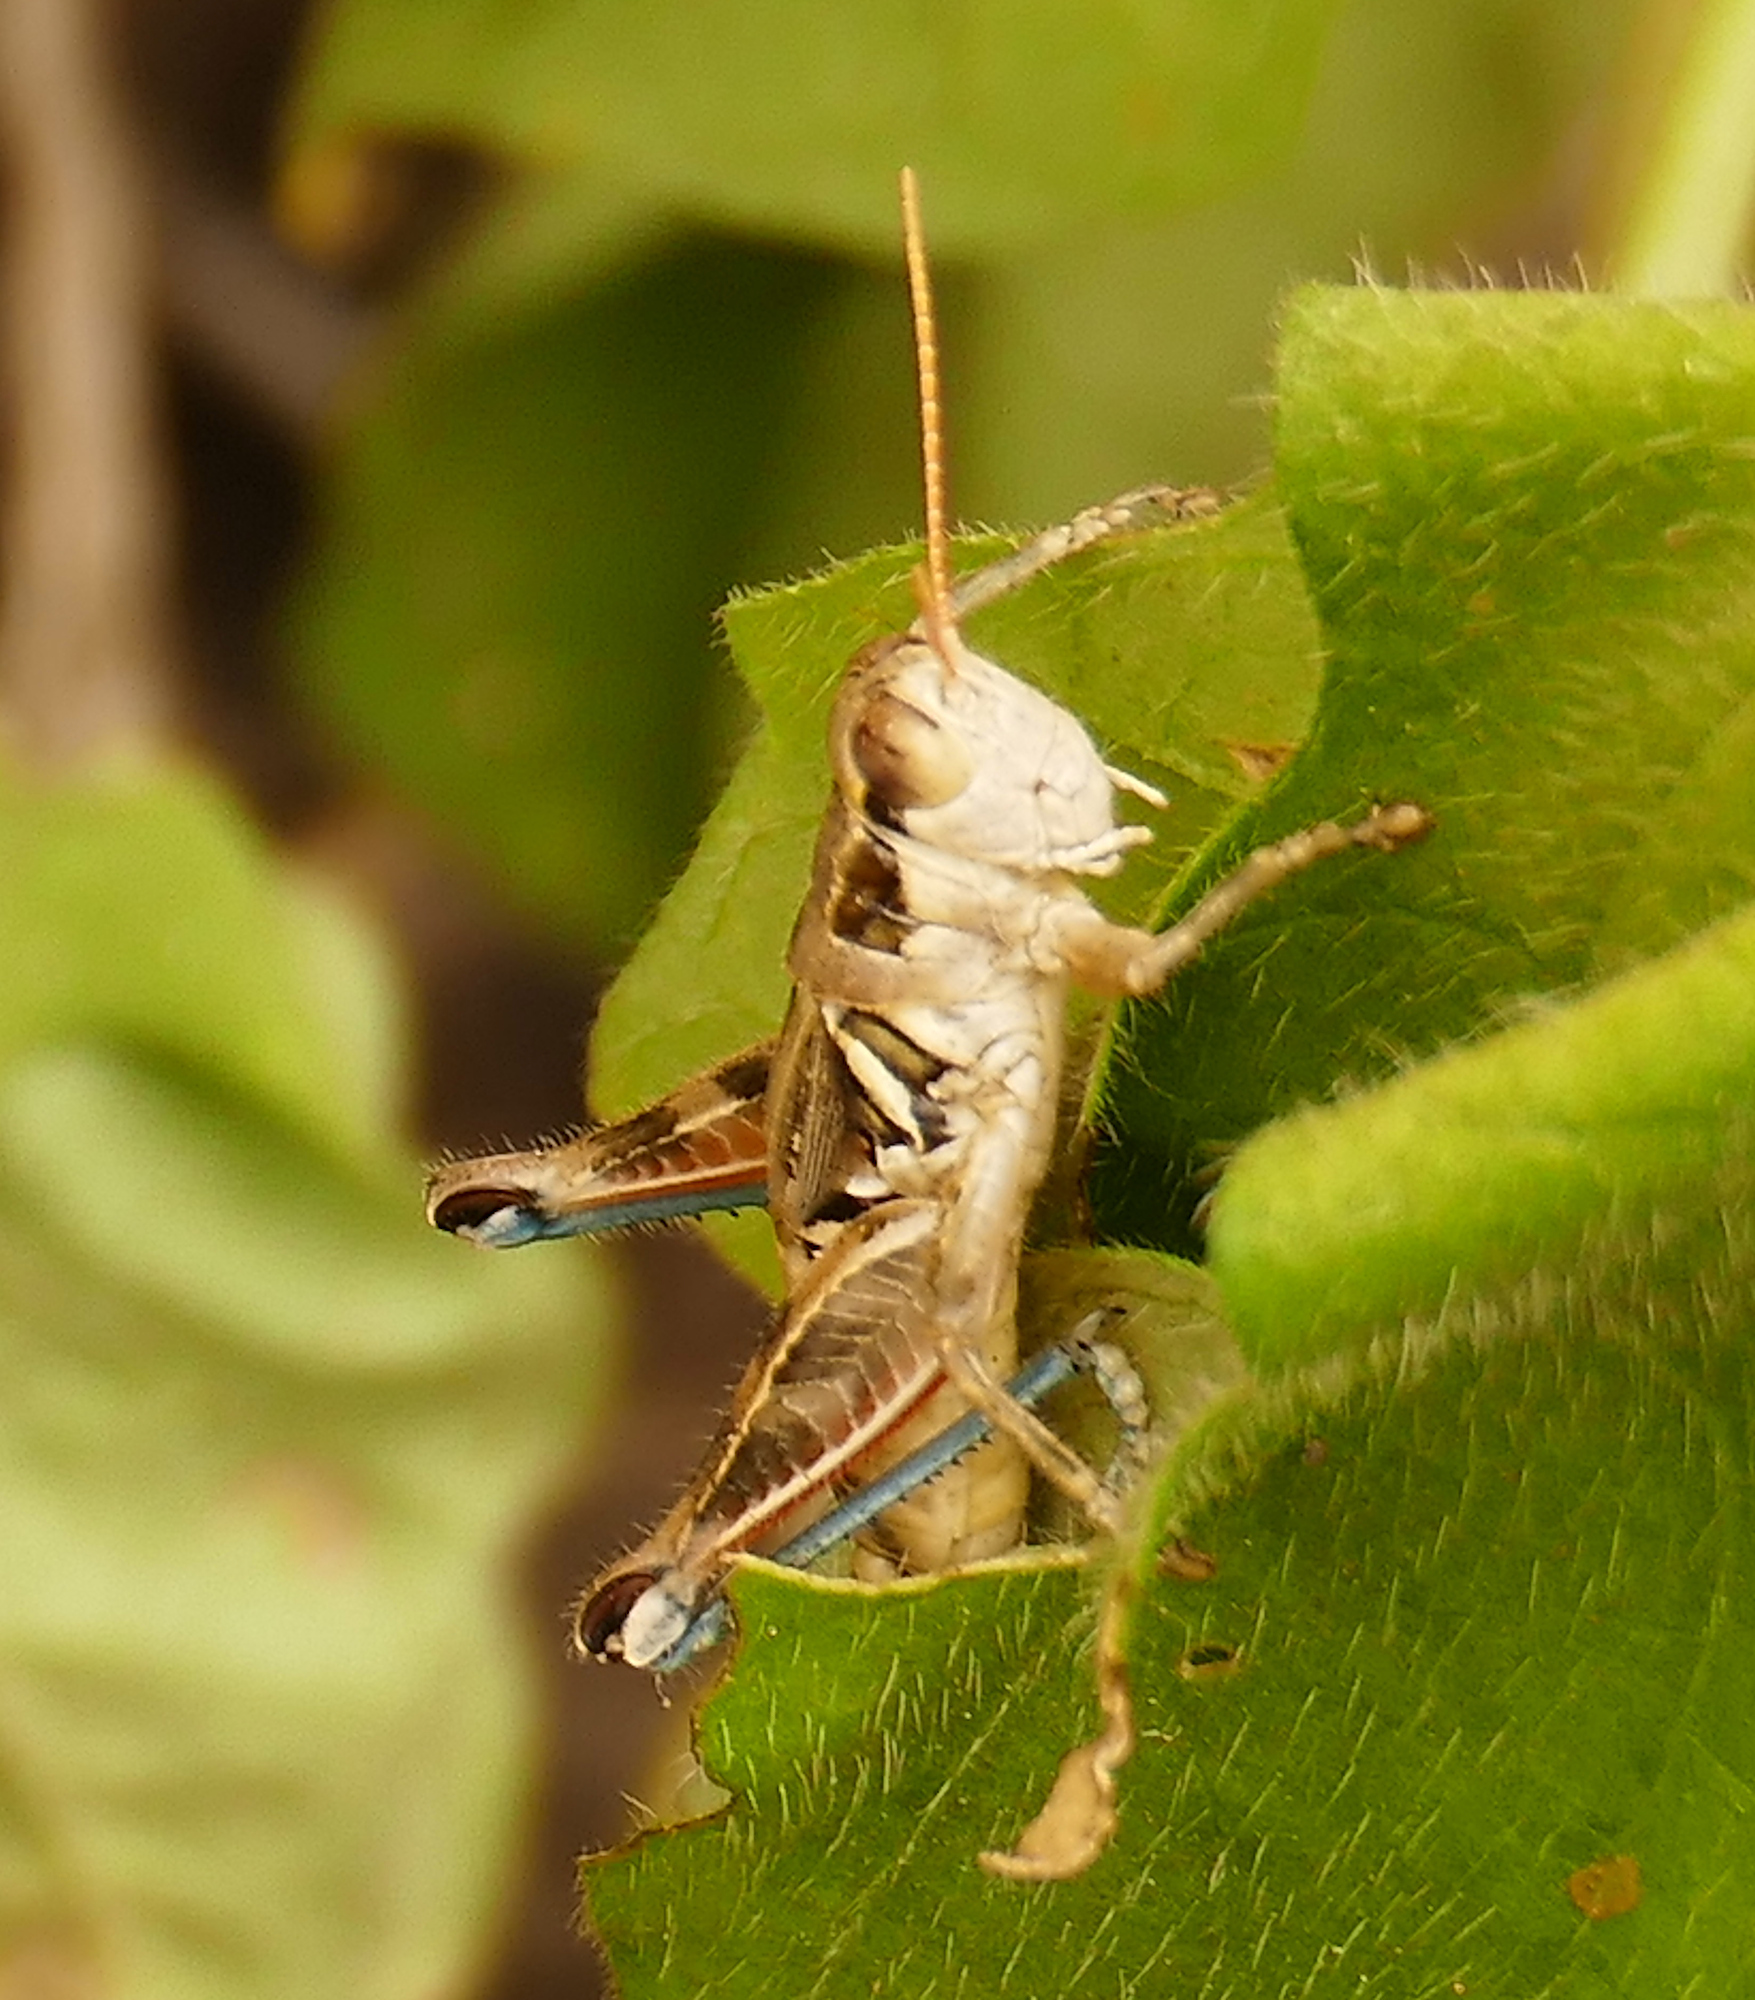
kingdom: Animalia
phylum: Arthropoda
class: Insecta
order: Orthoptera
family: Acrididae
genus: Melanoplus
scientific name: Melanoplus lakinus
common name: Lakin grasshopper
